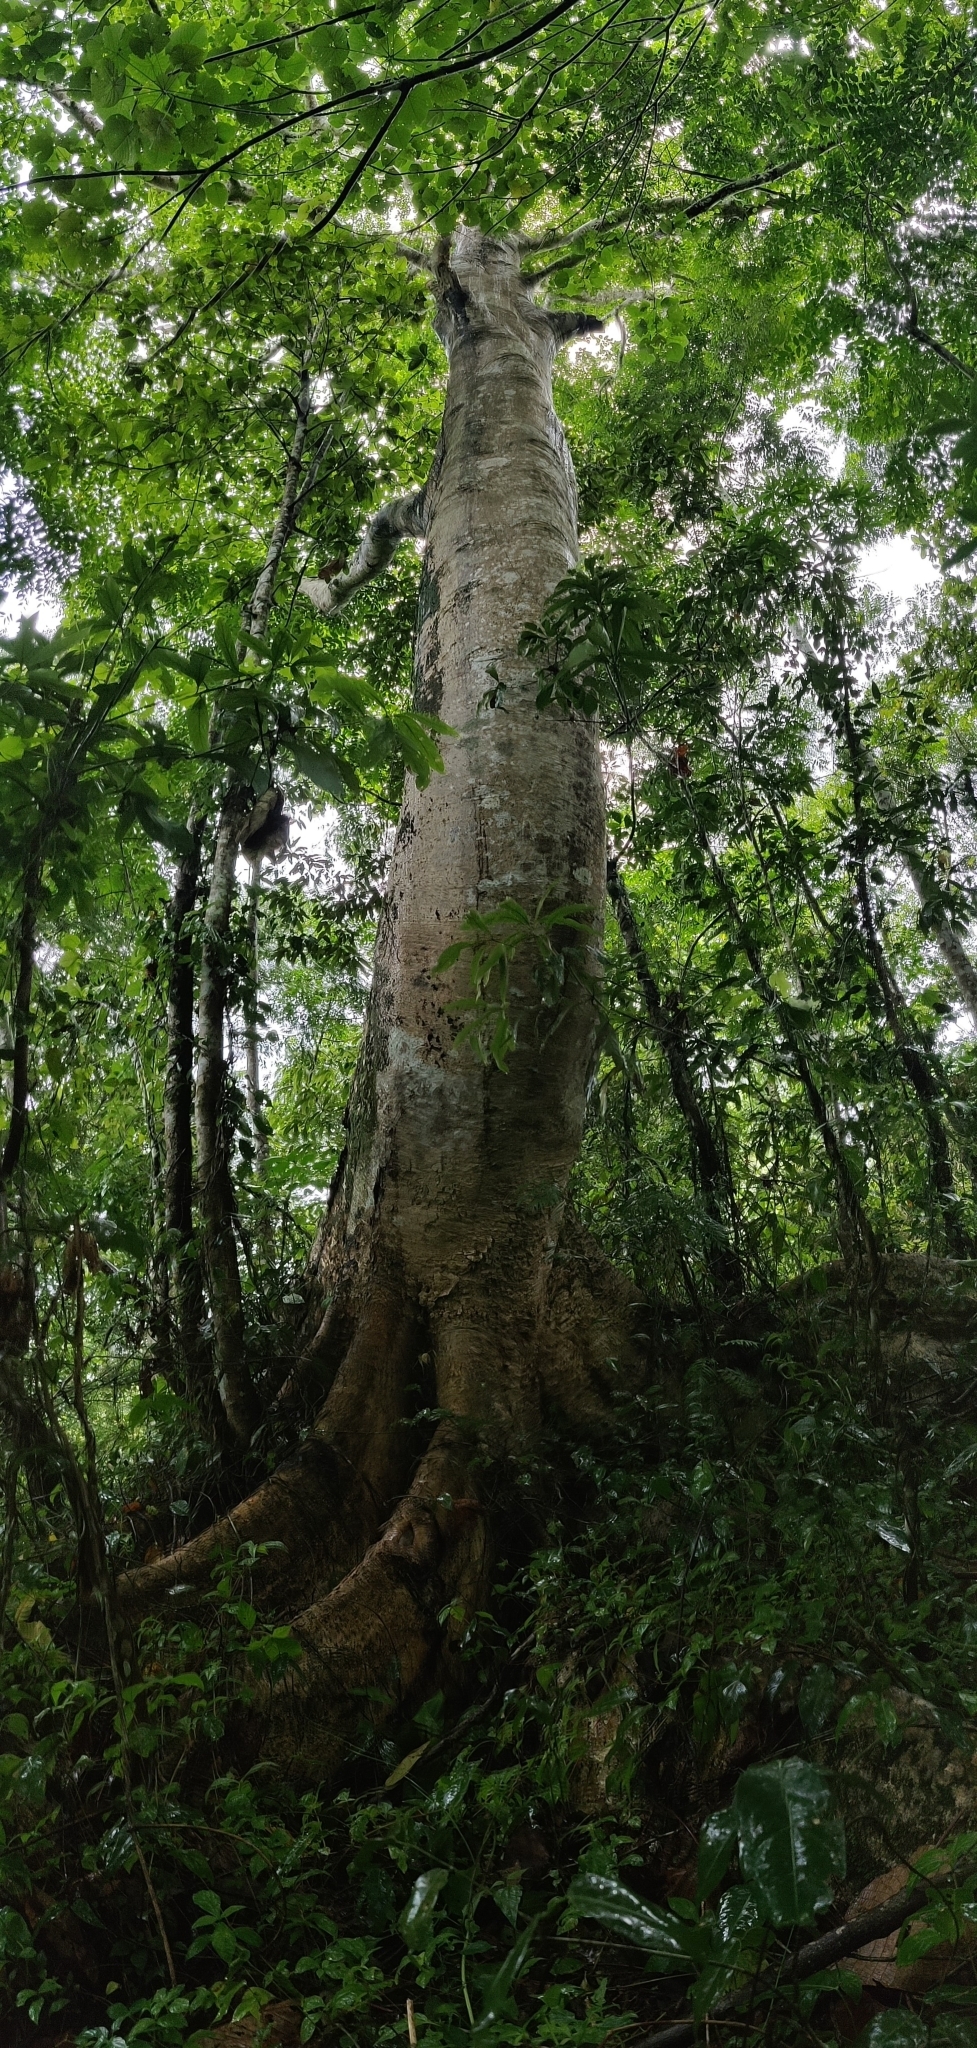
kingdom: Plantae
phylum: Tracheophyta
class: Magnoliopsida
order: Cucurbitales
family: Tetramelaceae
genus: Tetrameles
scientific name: Tetrameles nudiflora
